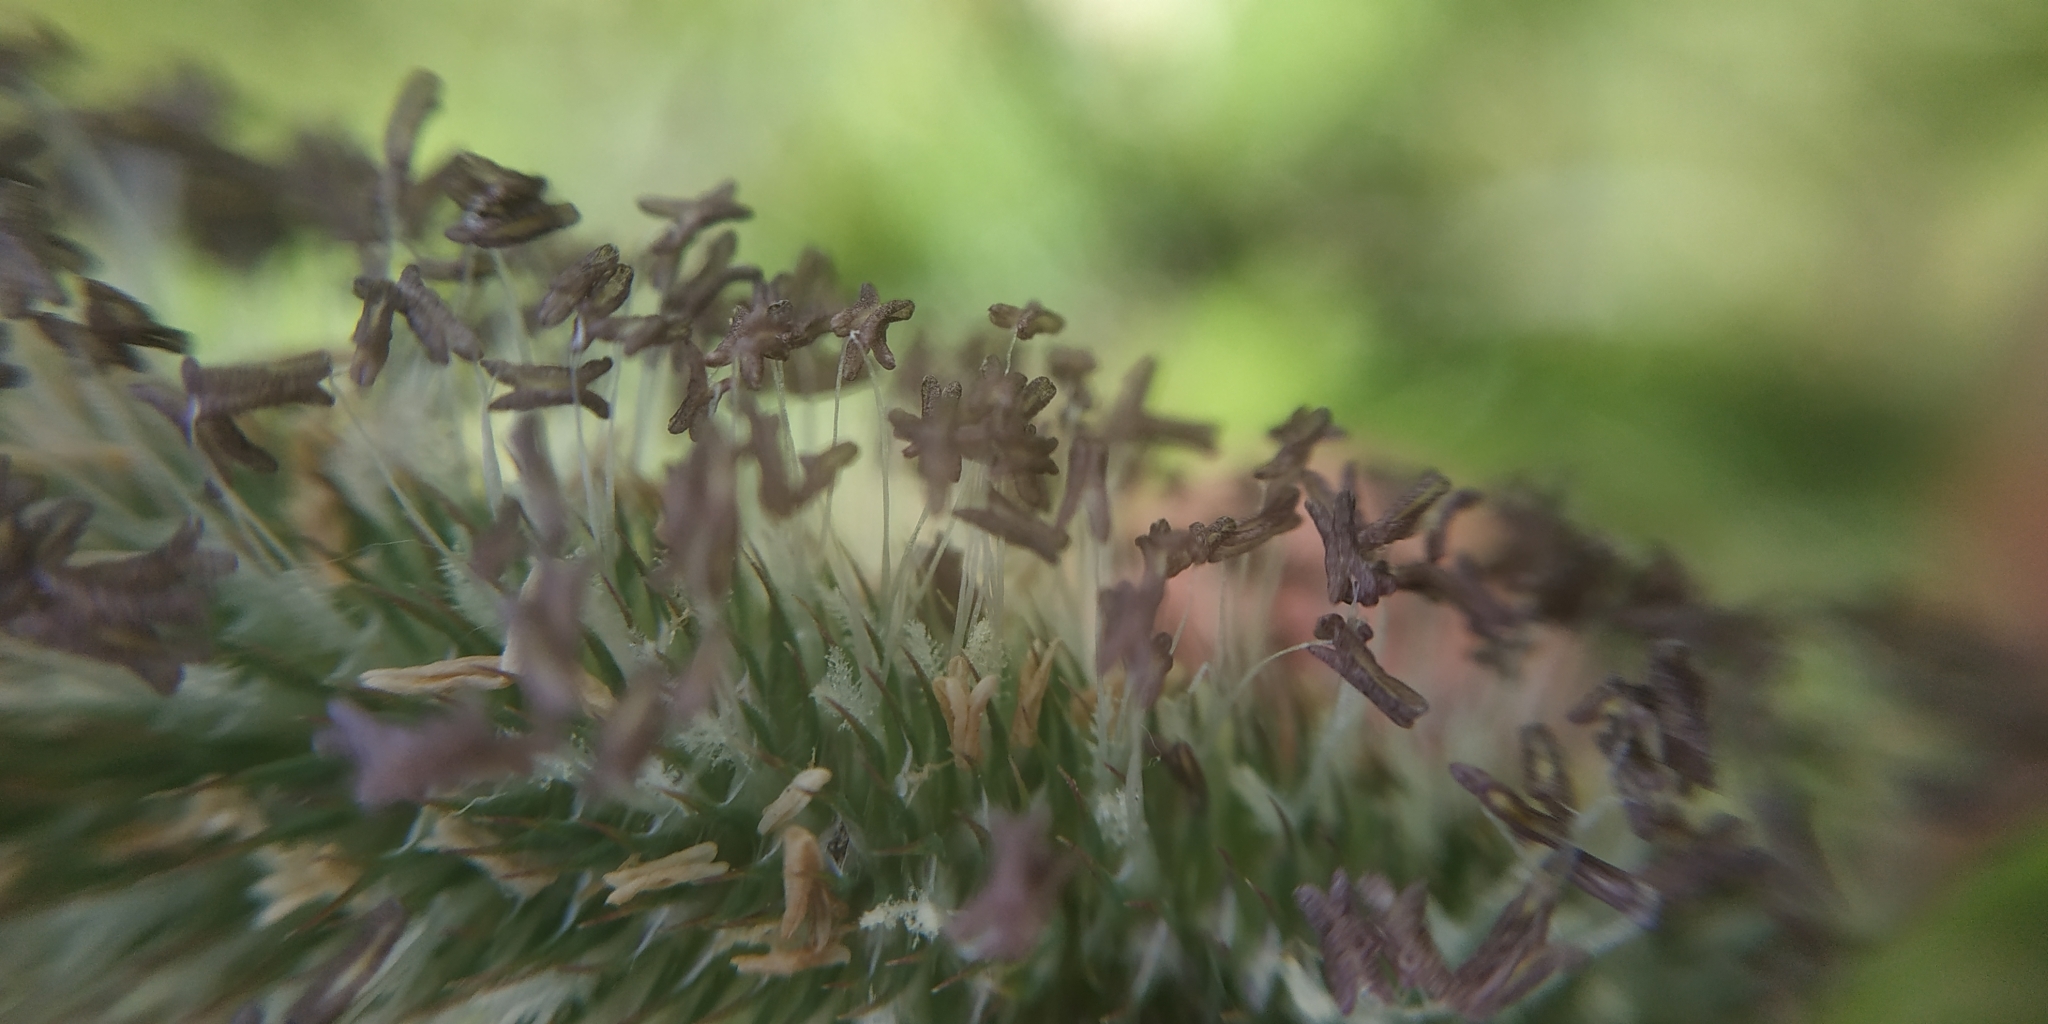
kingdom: Plantae
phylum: Tracheophyta
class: Liliopsida
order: Poales
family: Poaceae
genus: Phleum
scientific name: Phleum pratense
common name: Timothy grass
